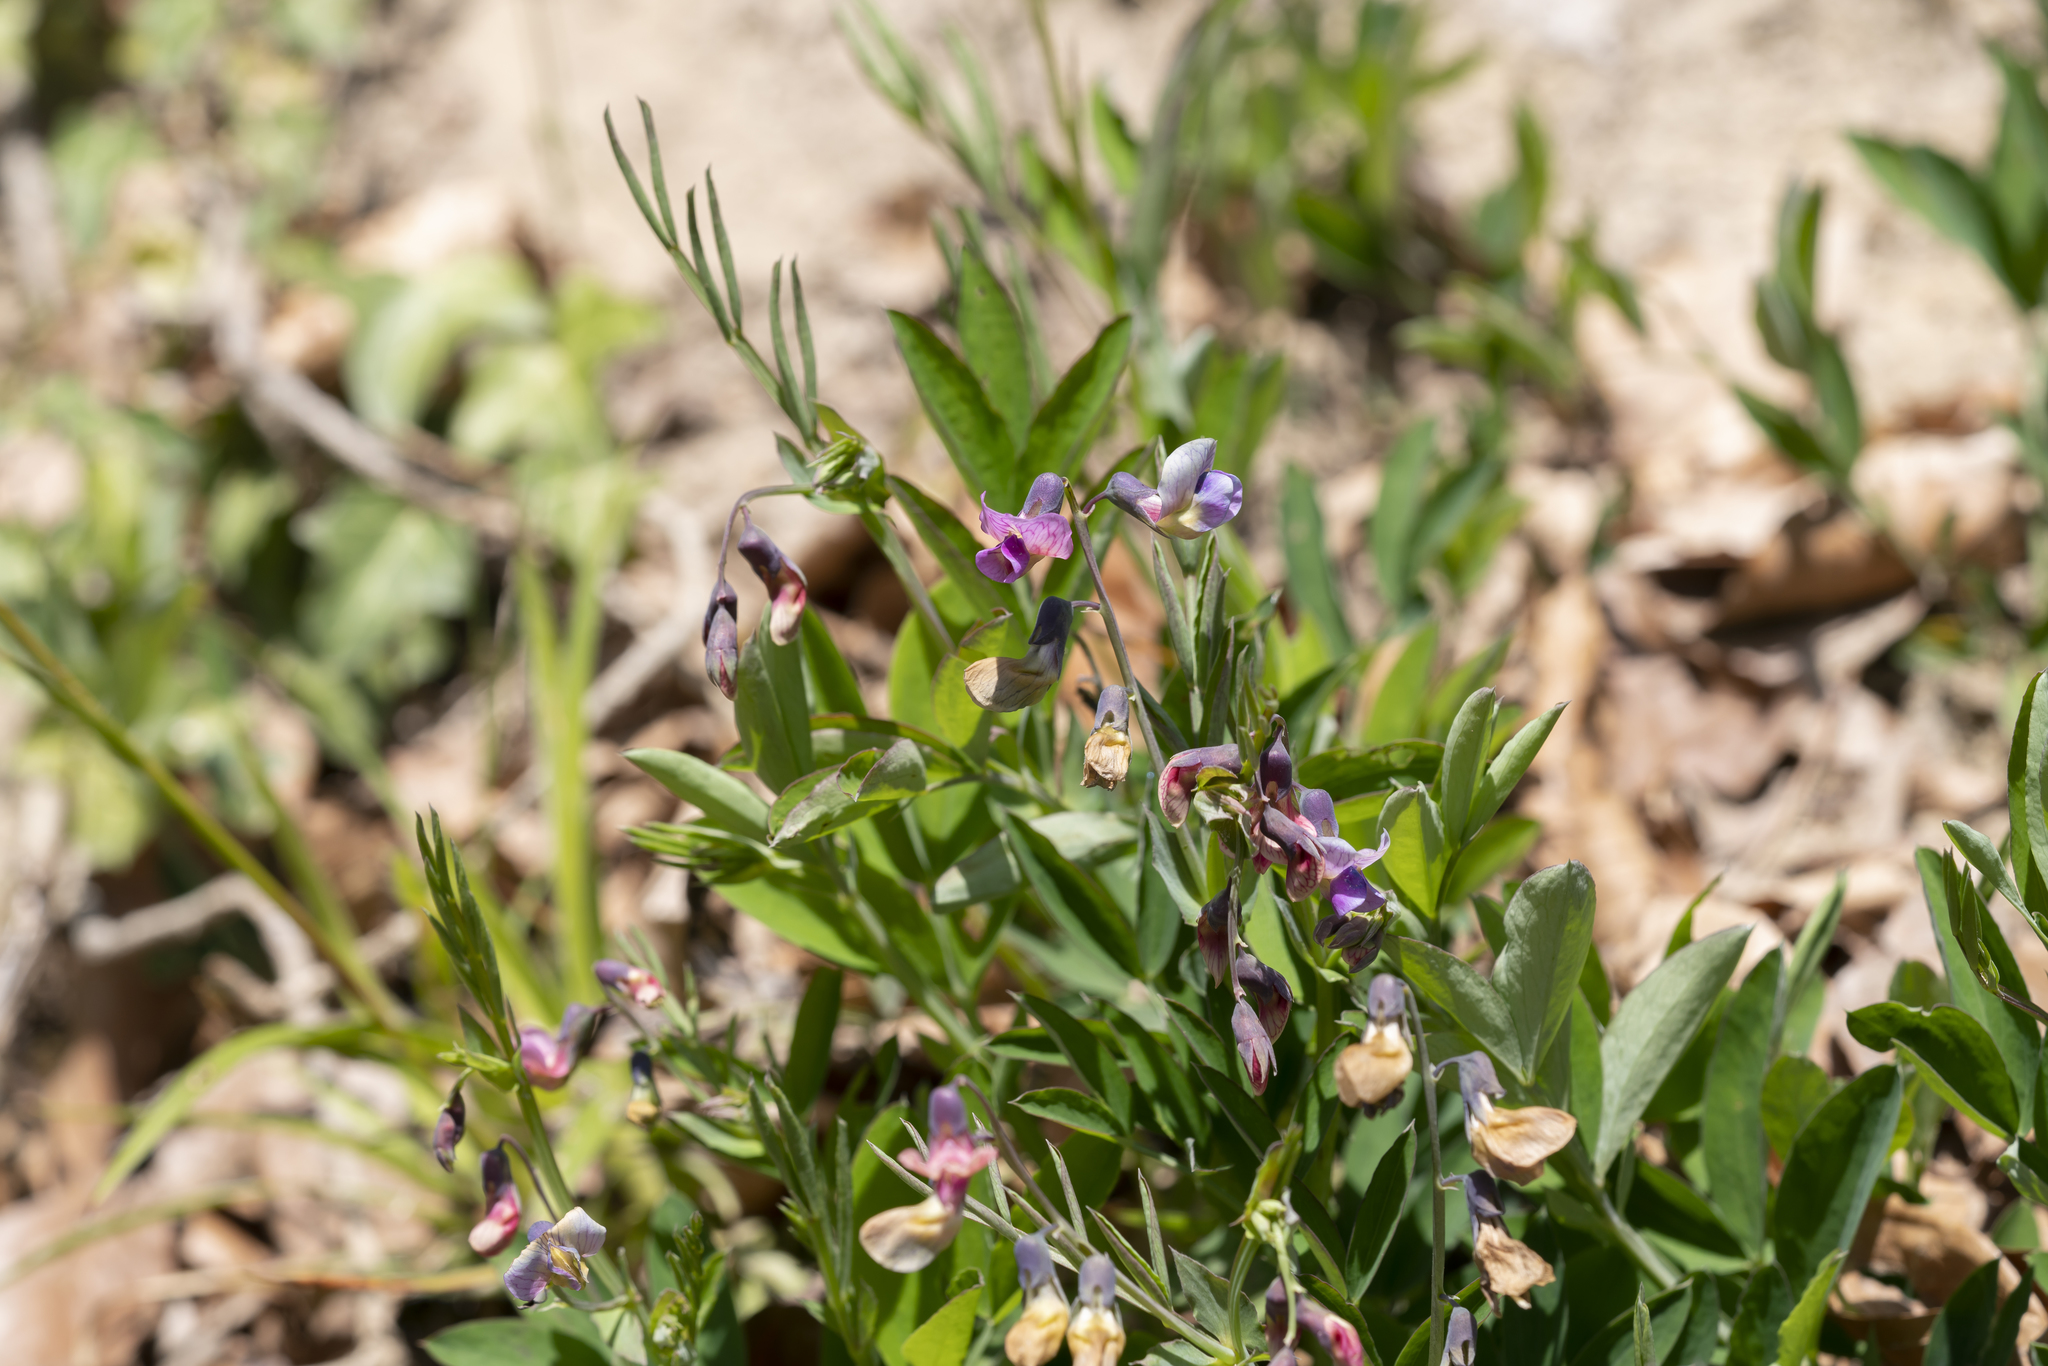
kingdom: Plantae
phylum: Tracheophyta
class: Magnoliopsida
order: Fabales
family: Fabaceae
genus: Lathyrus
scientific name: Lathyrus linifolius
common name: Bitter-vetch
